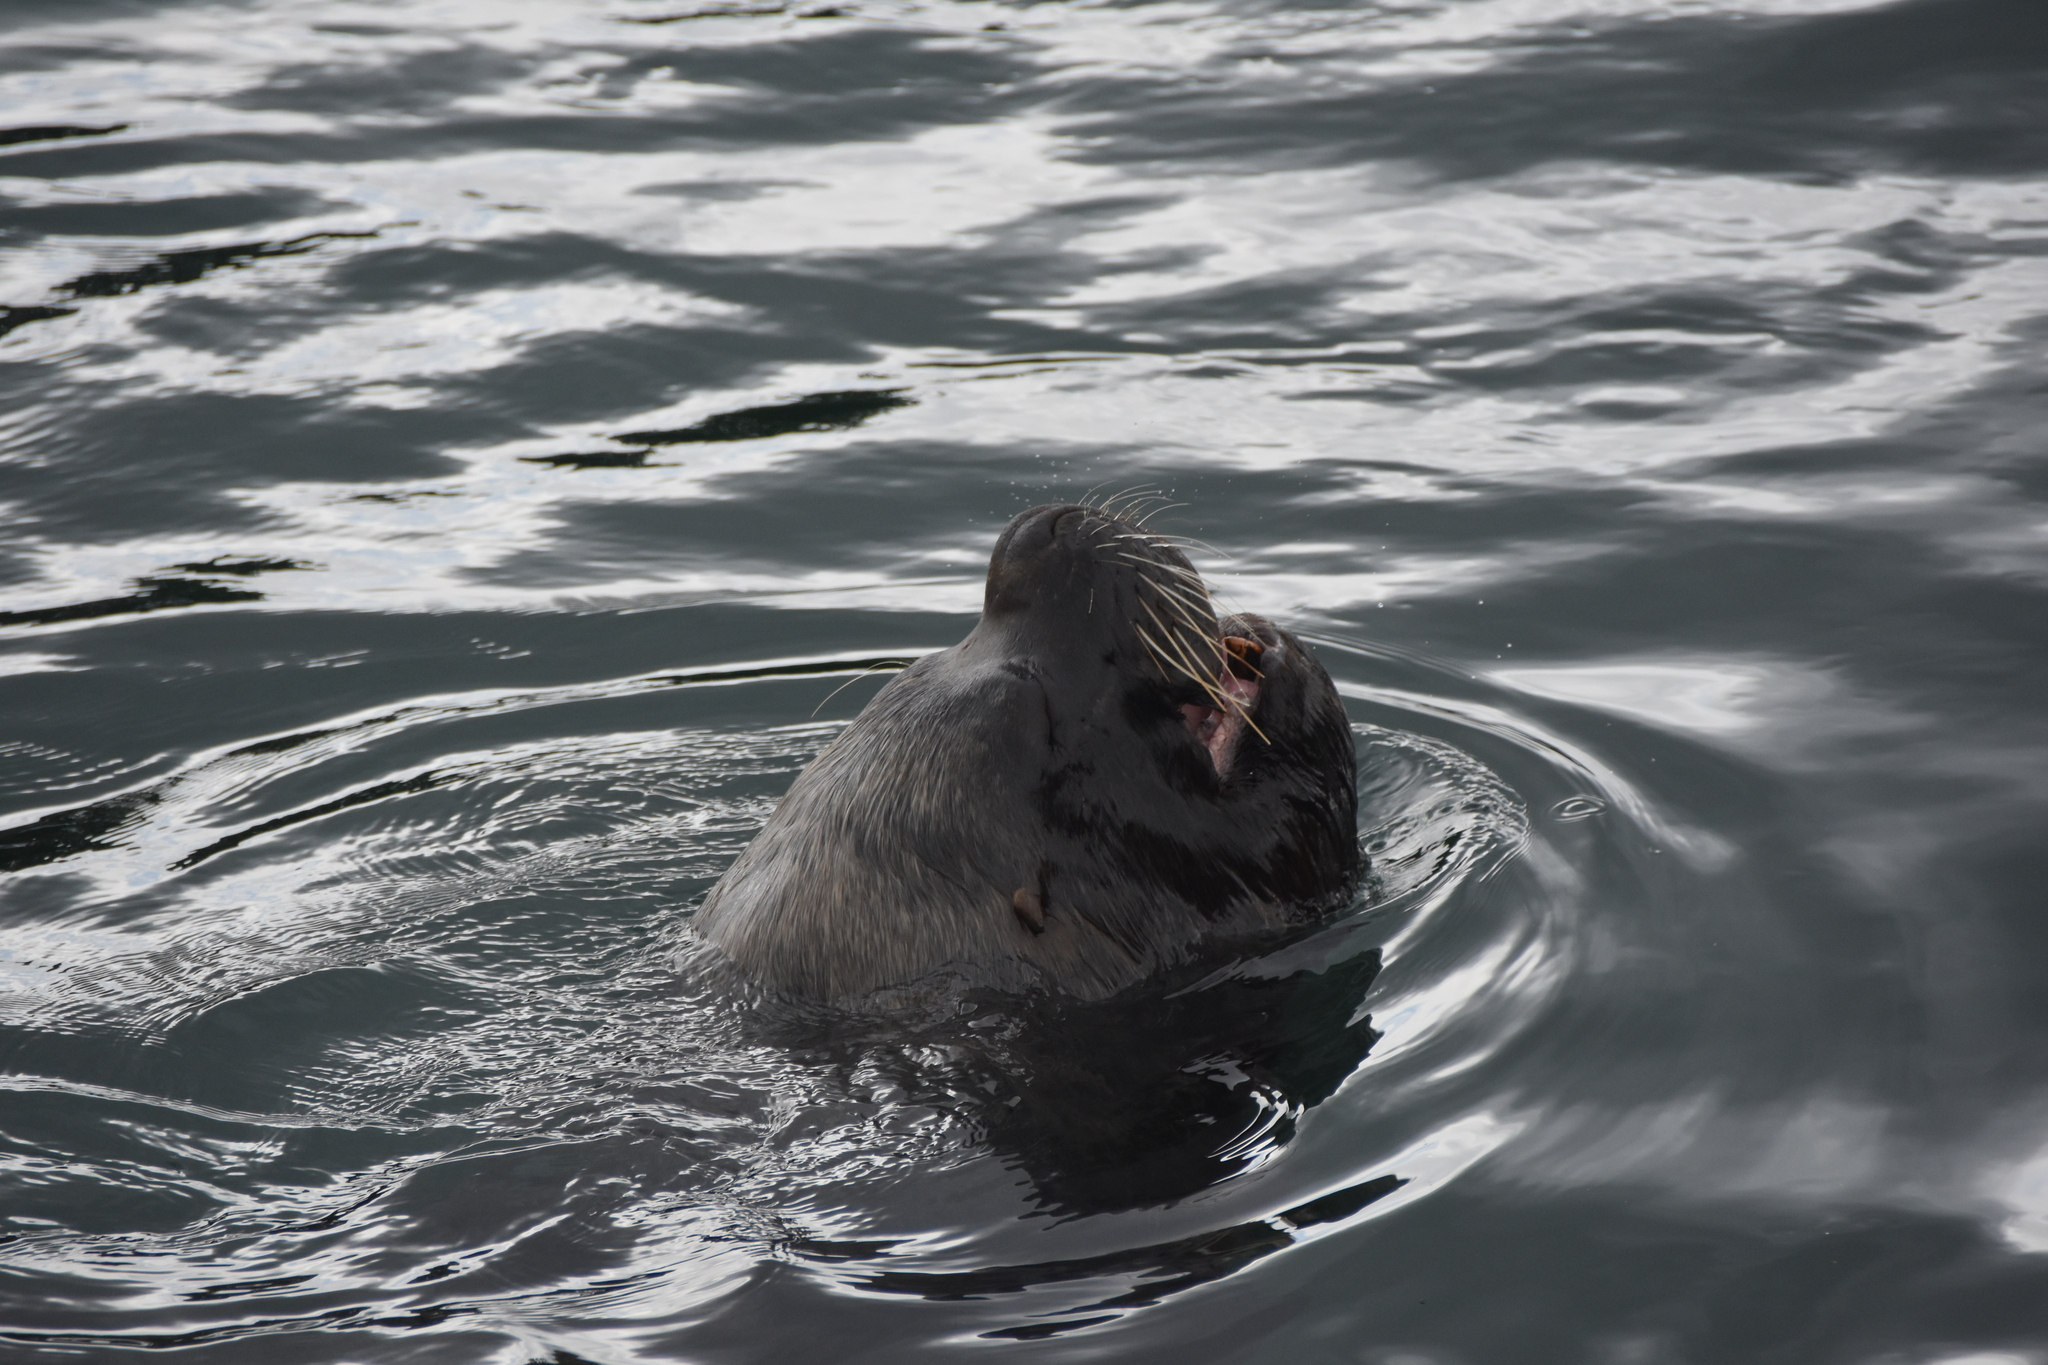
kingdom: Animalia
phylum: Chordata
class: Mammalia
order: Carnivora
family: Otariidae
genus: Otaria
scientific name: Otaria byronia
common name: South american sea lion
